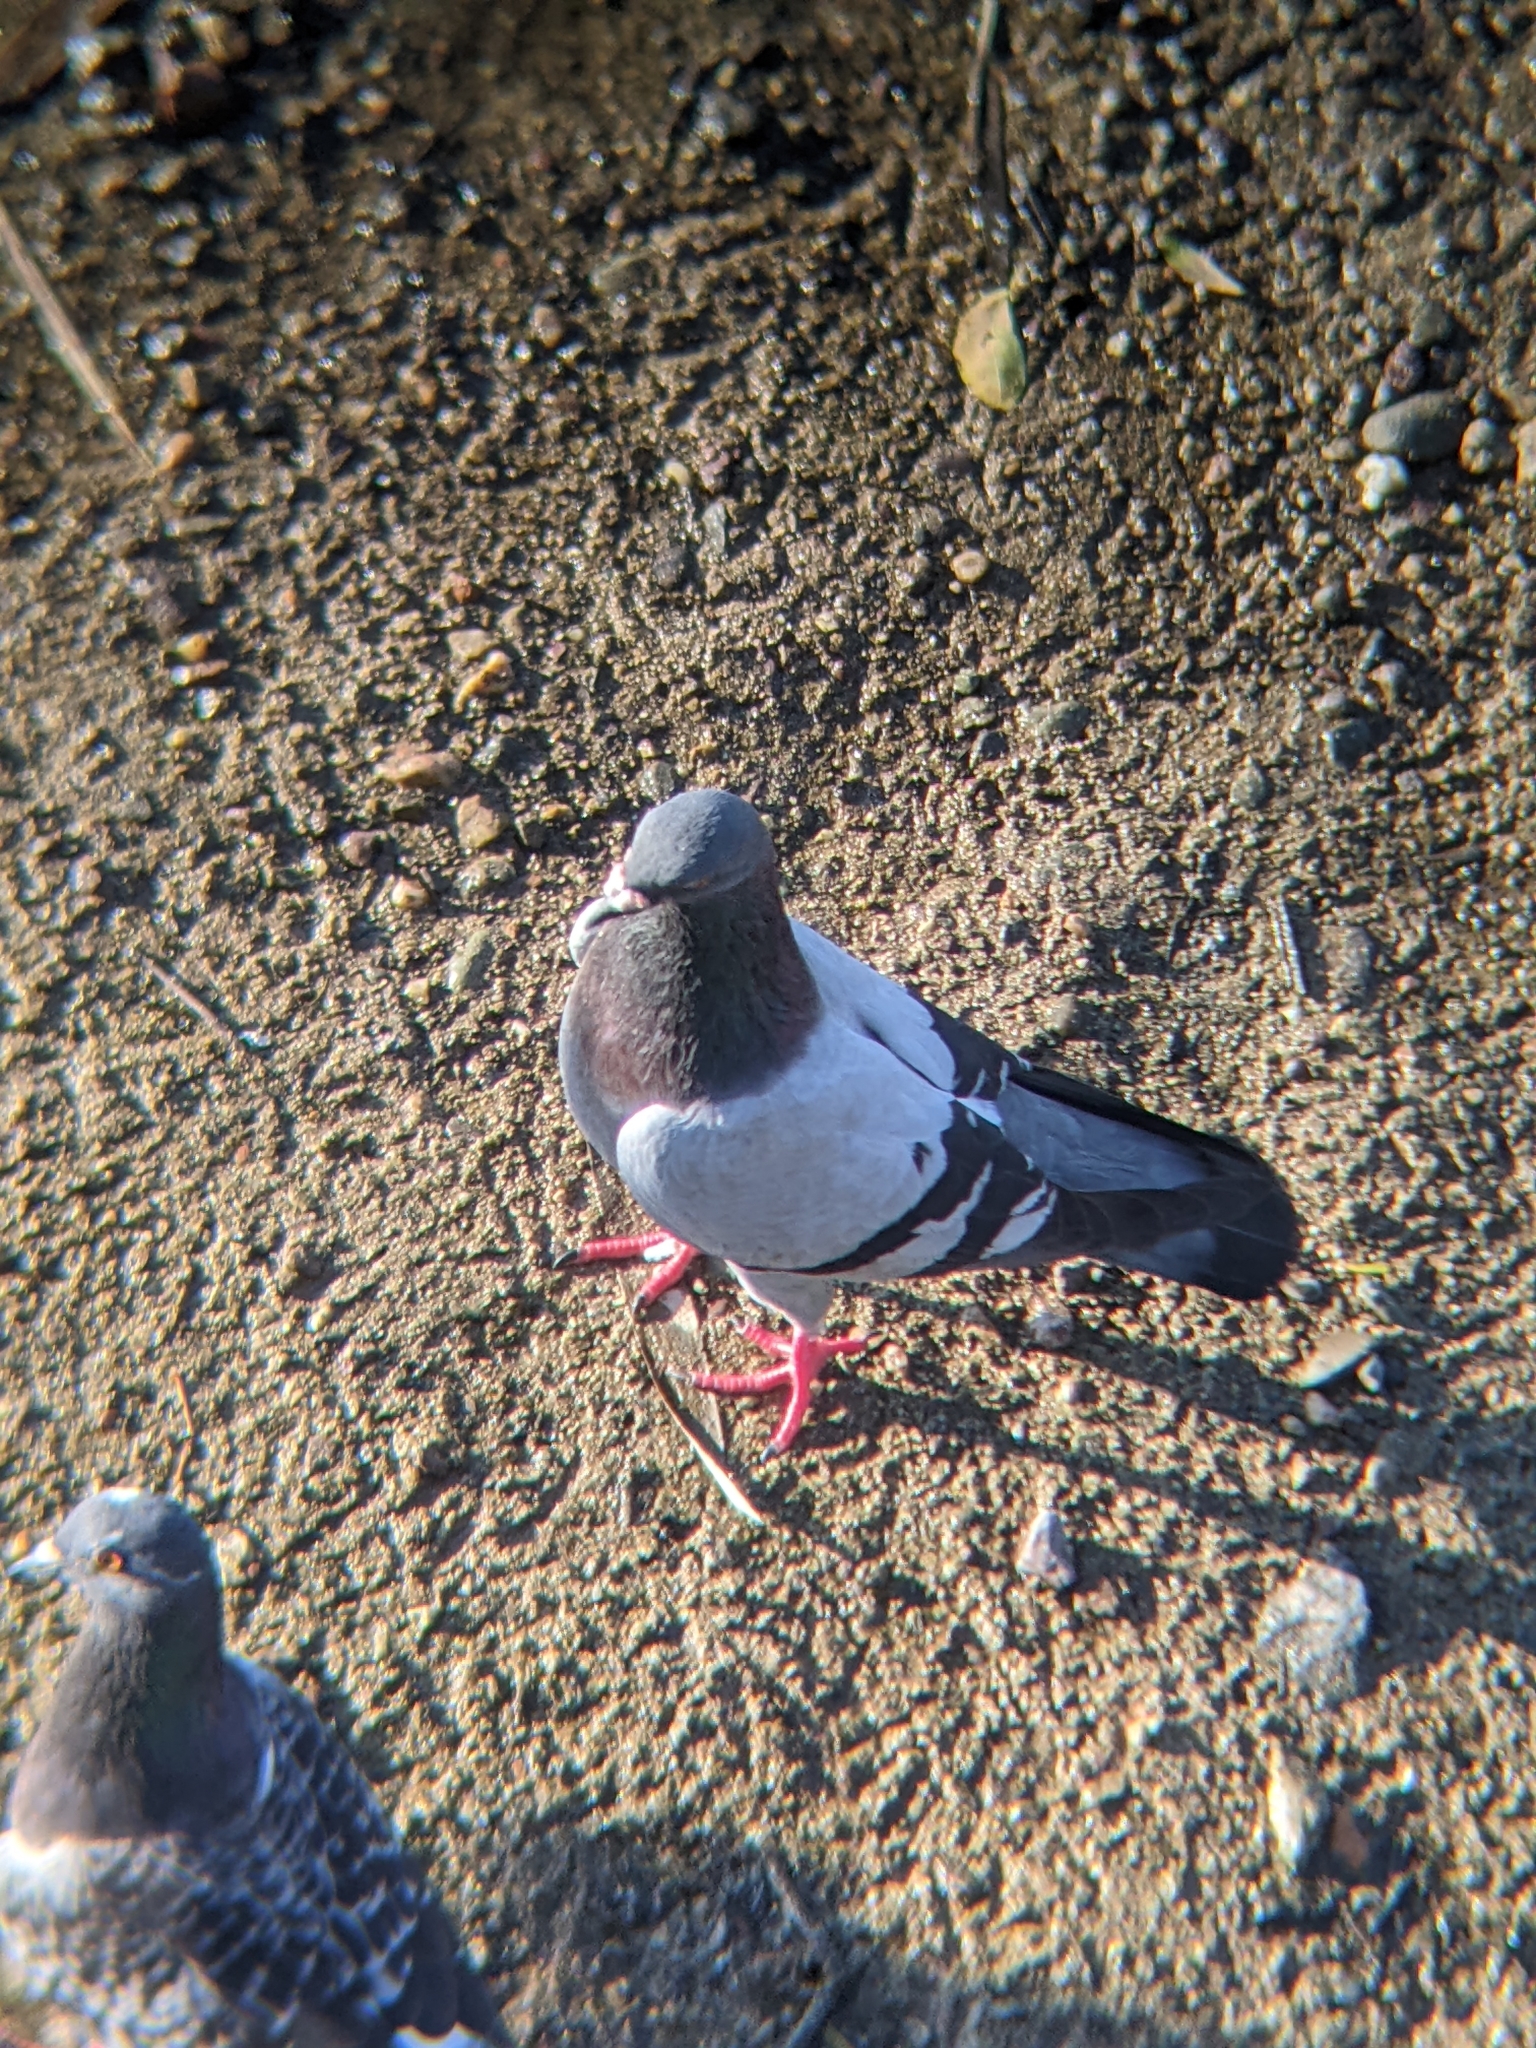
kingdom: Animalia
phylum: Chordata
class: Aves
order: Columbiformes
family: Columbidae
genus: Columba
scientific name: Columba livia
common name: Rock pigeon
